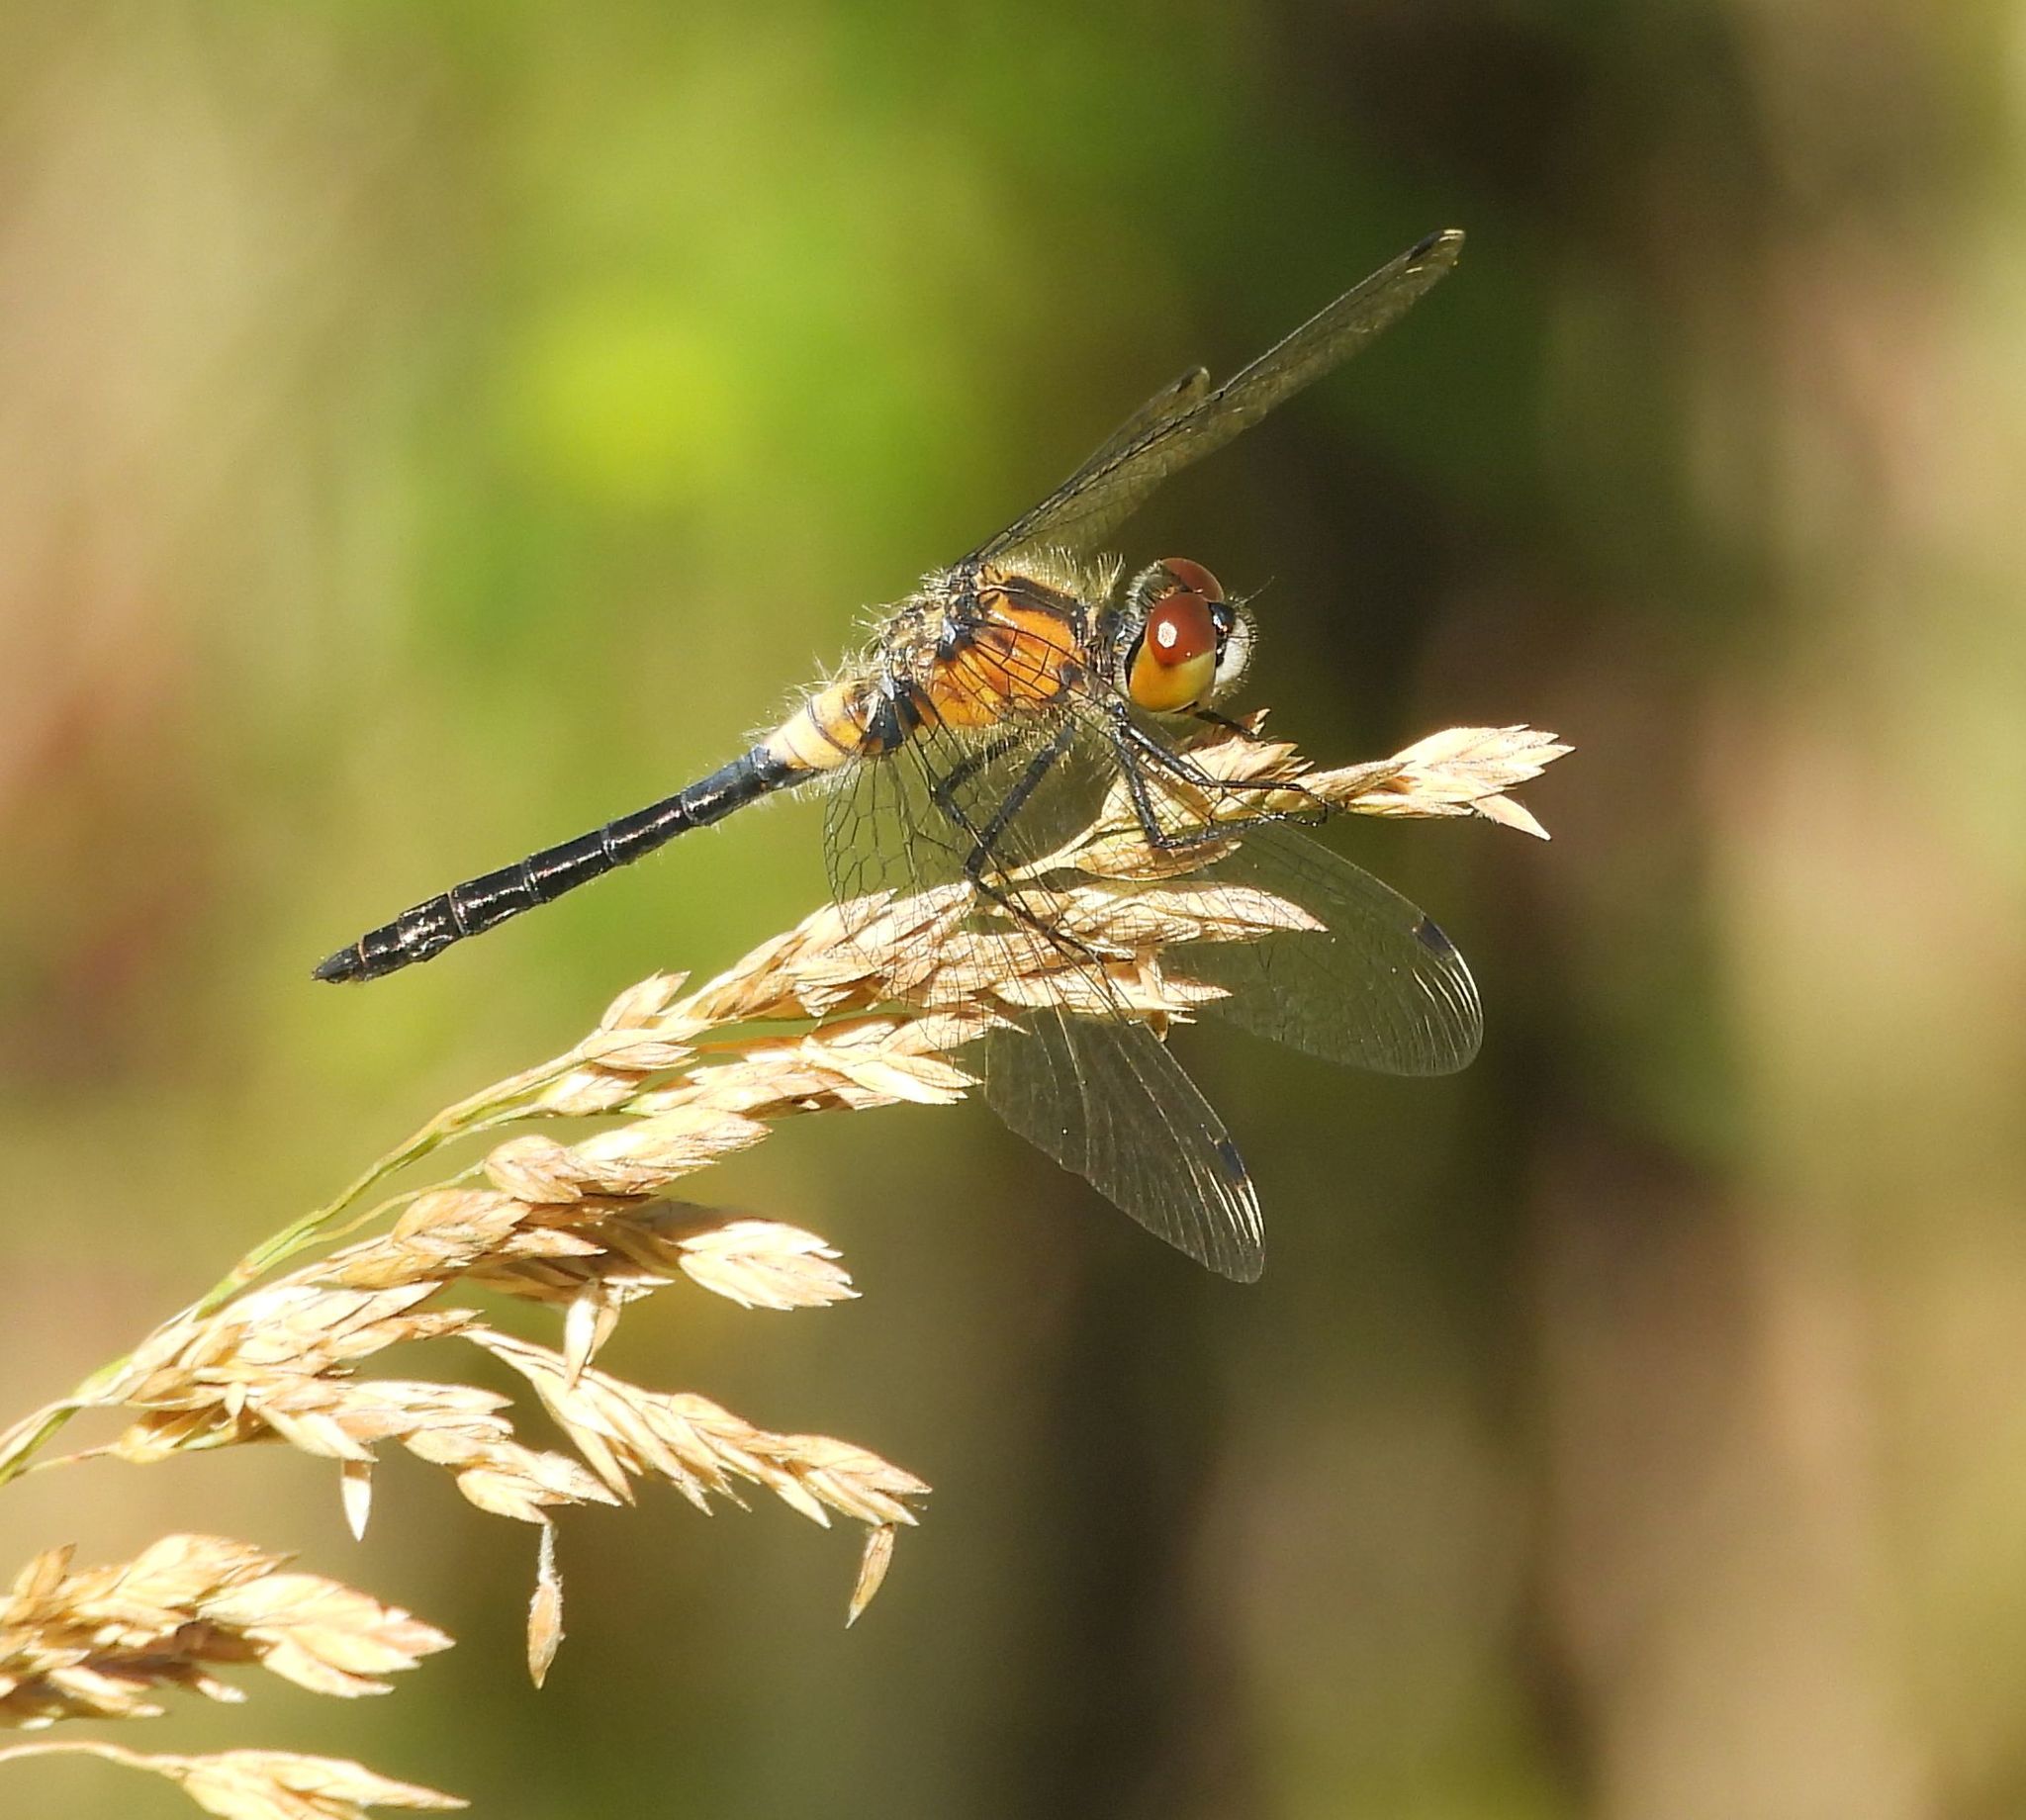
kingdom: Animalia
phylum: Arthropoda
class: Insecta
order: Odonata
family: Libellulidae
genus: Leucorrhinia
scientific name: Leucorrhinia frigida
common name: Frosted whiteface
